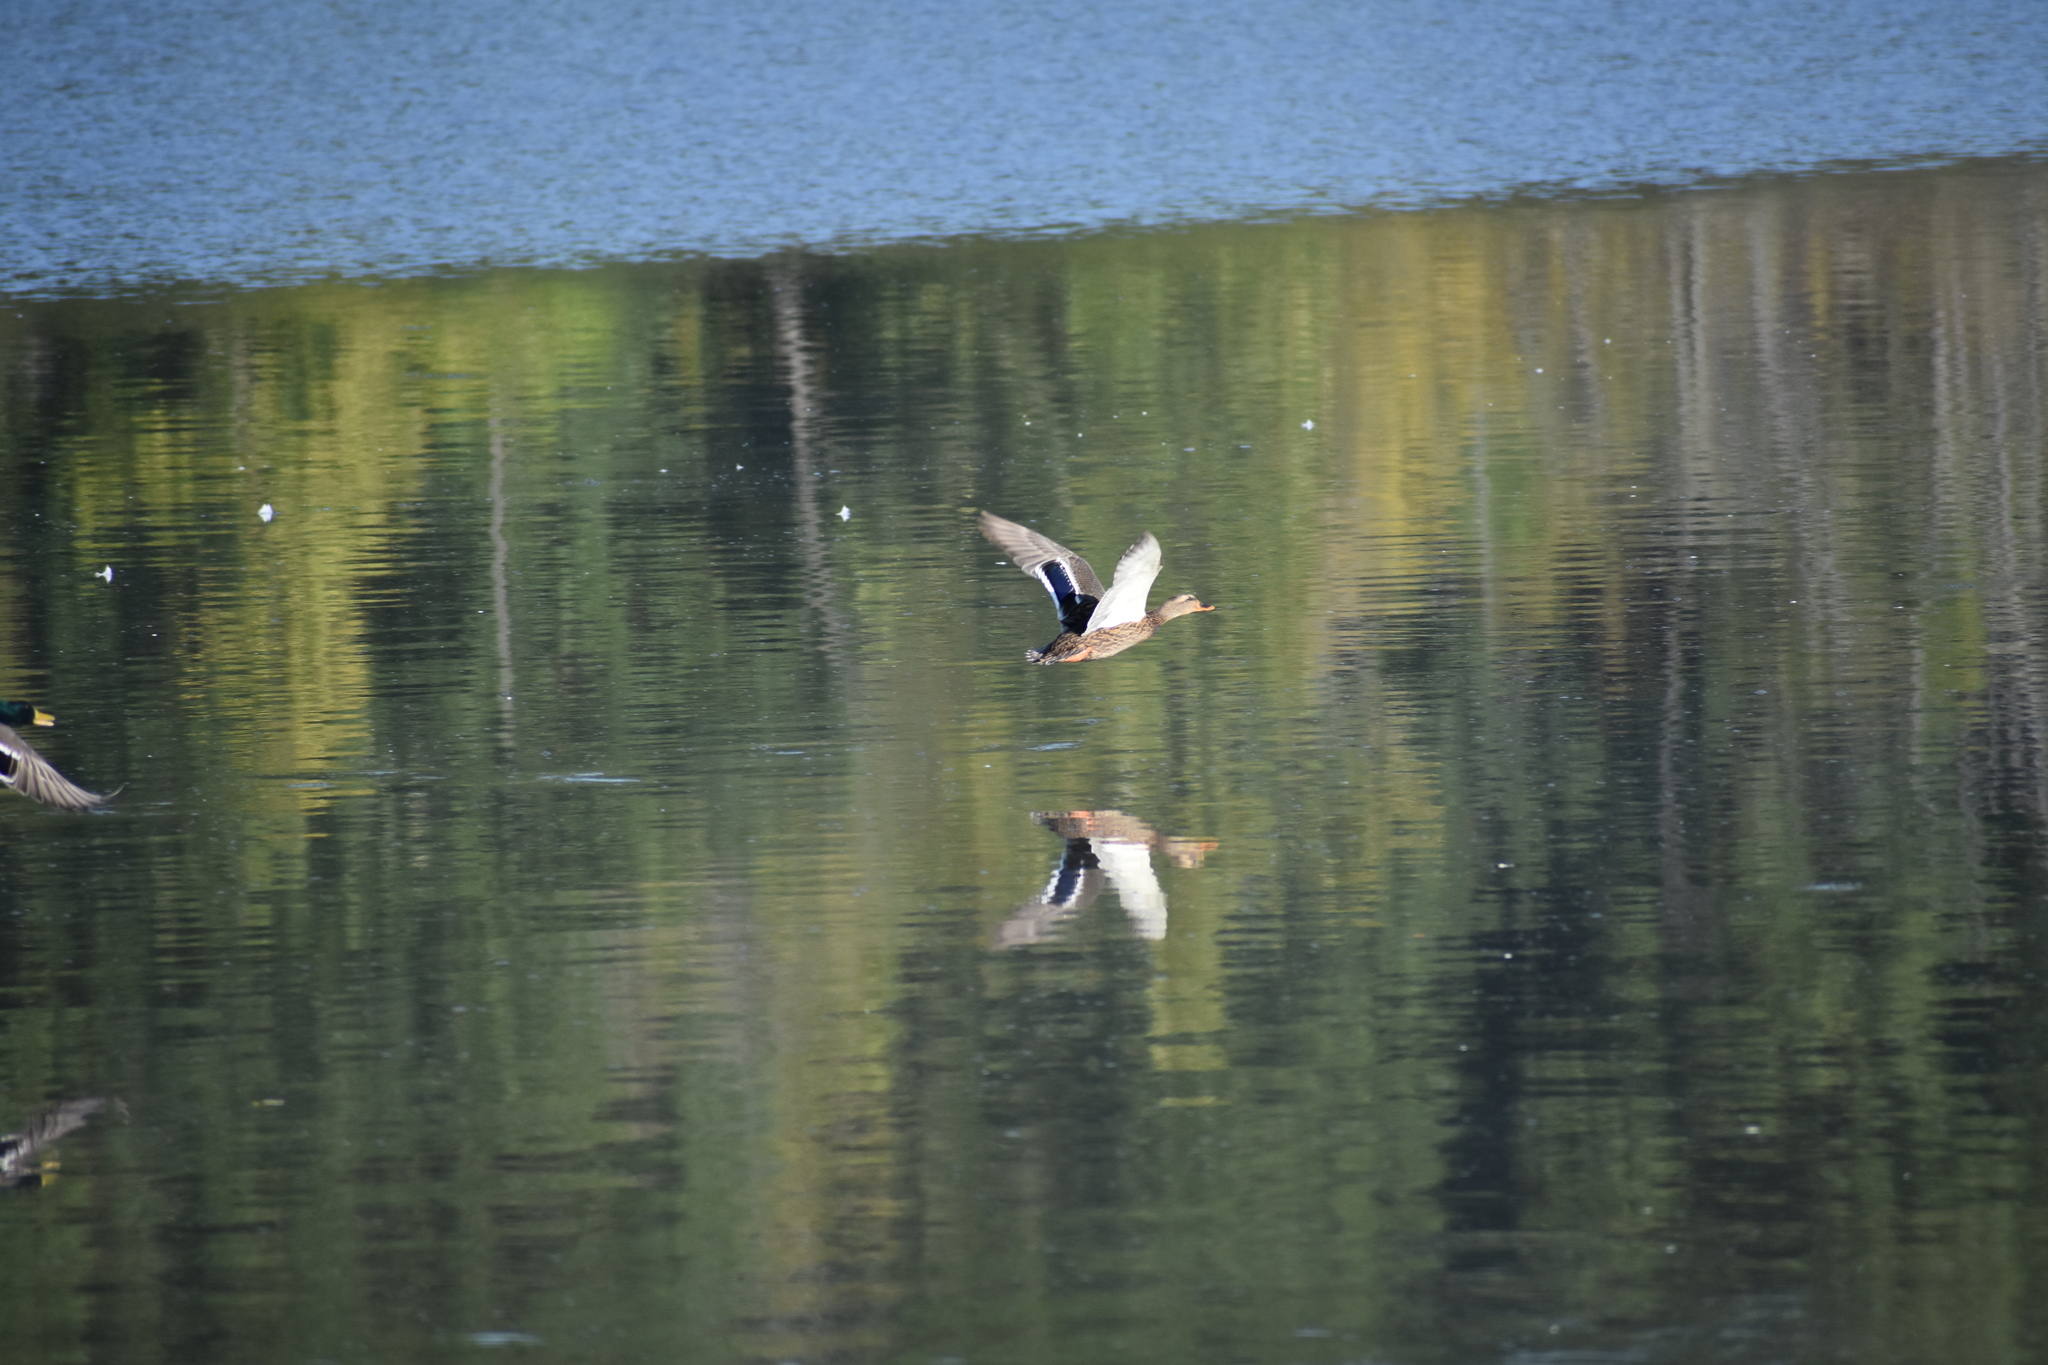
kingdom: Animalia
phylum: Chordata
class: Aves
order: Anseriformes
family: Anatidae
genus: Anas
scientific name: Anas platyrhynchos
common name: Mallard
